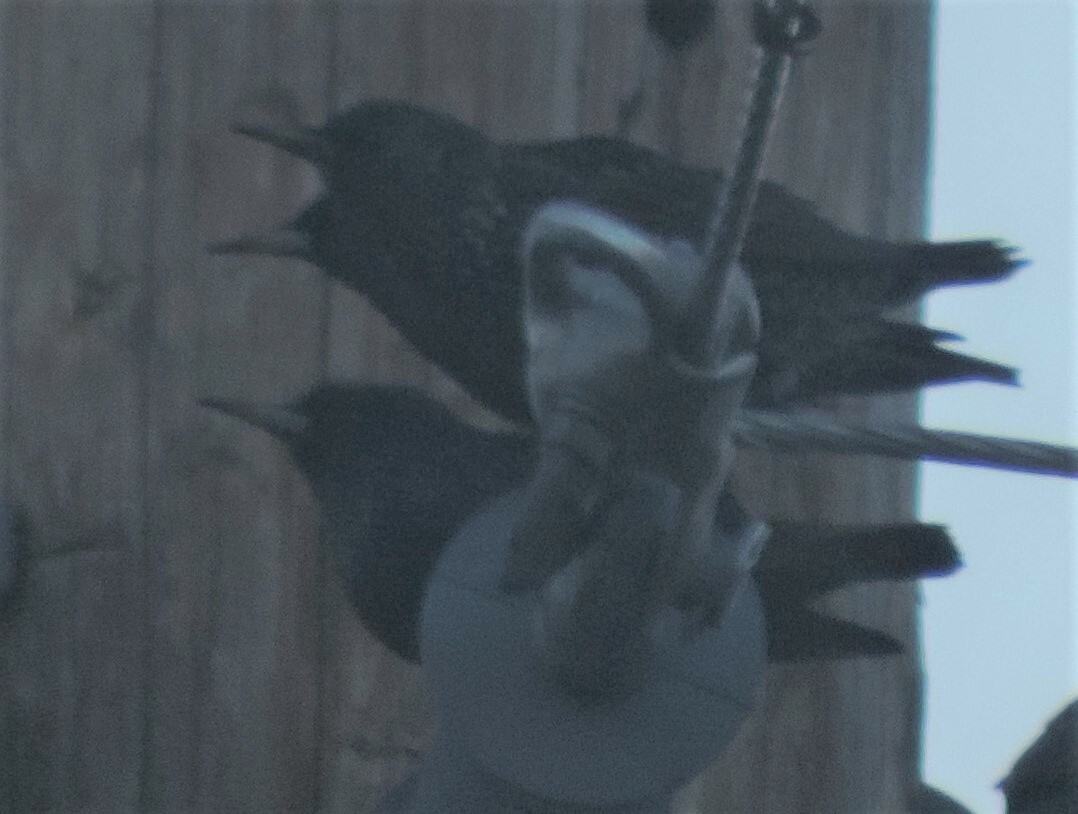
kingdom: Animalia
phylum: Chordata
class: Aves
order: Passeriformes
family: Sturnidae
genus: Sturnus
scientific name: Sturnus vulgaris
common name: Common starling
